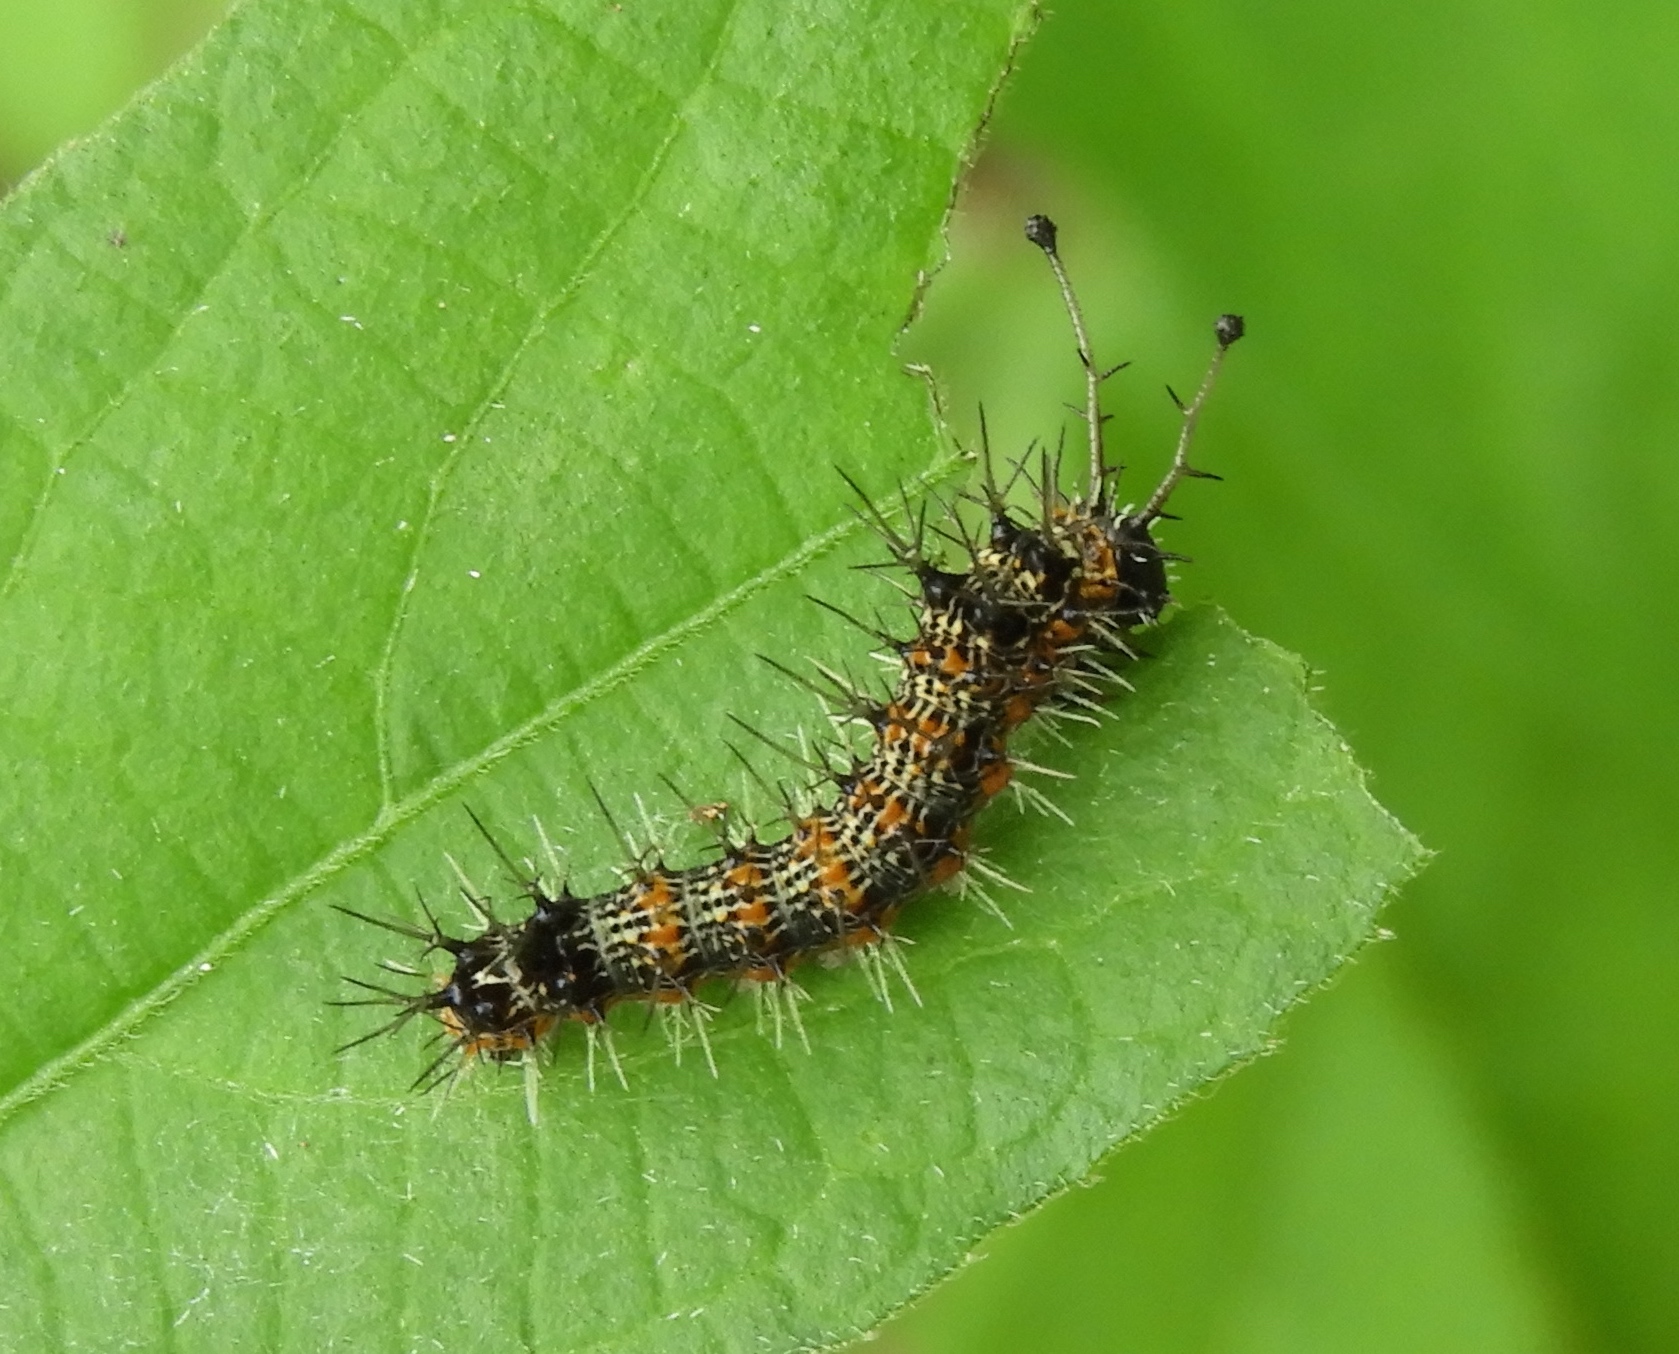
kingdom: Animalia
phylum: Arthropoda
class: Insecta
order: Lepidoptera
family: Nymphalidae
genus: Hamadryas
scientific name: Hamadryas
